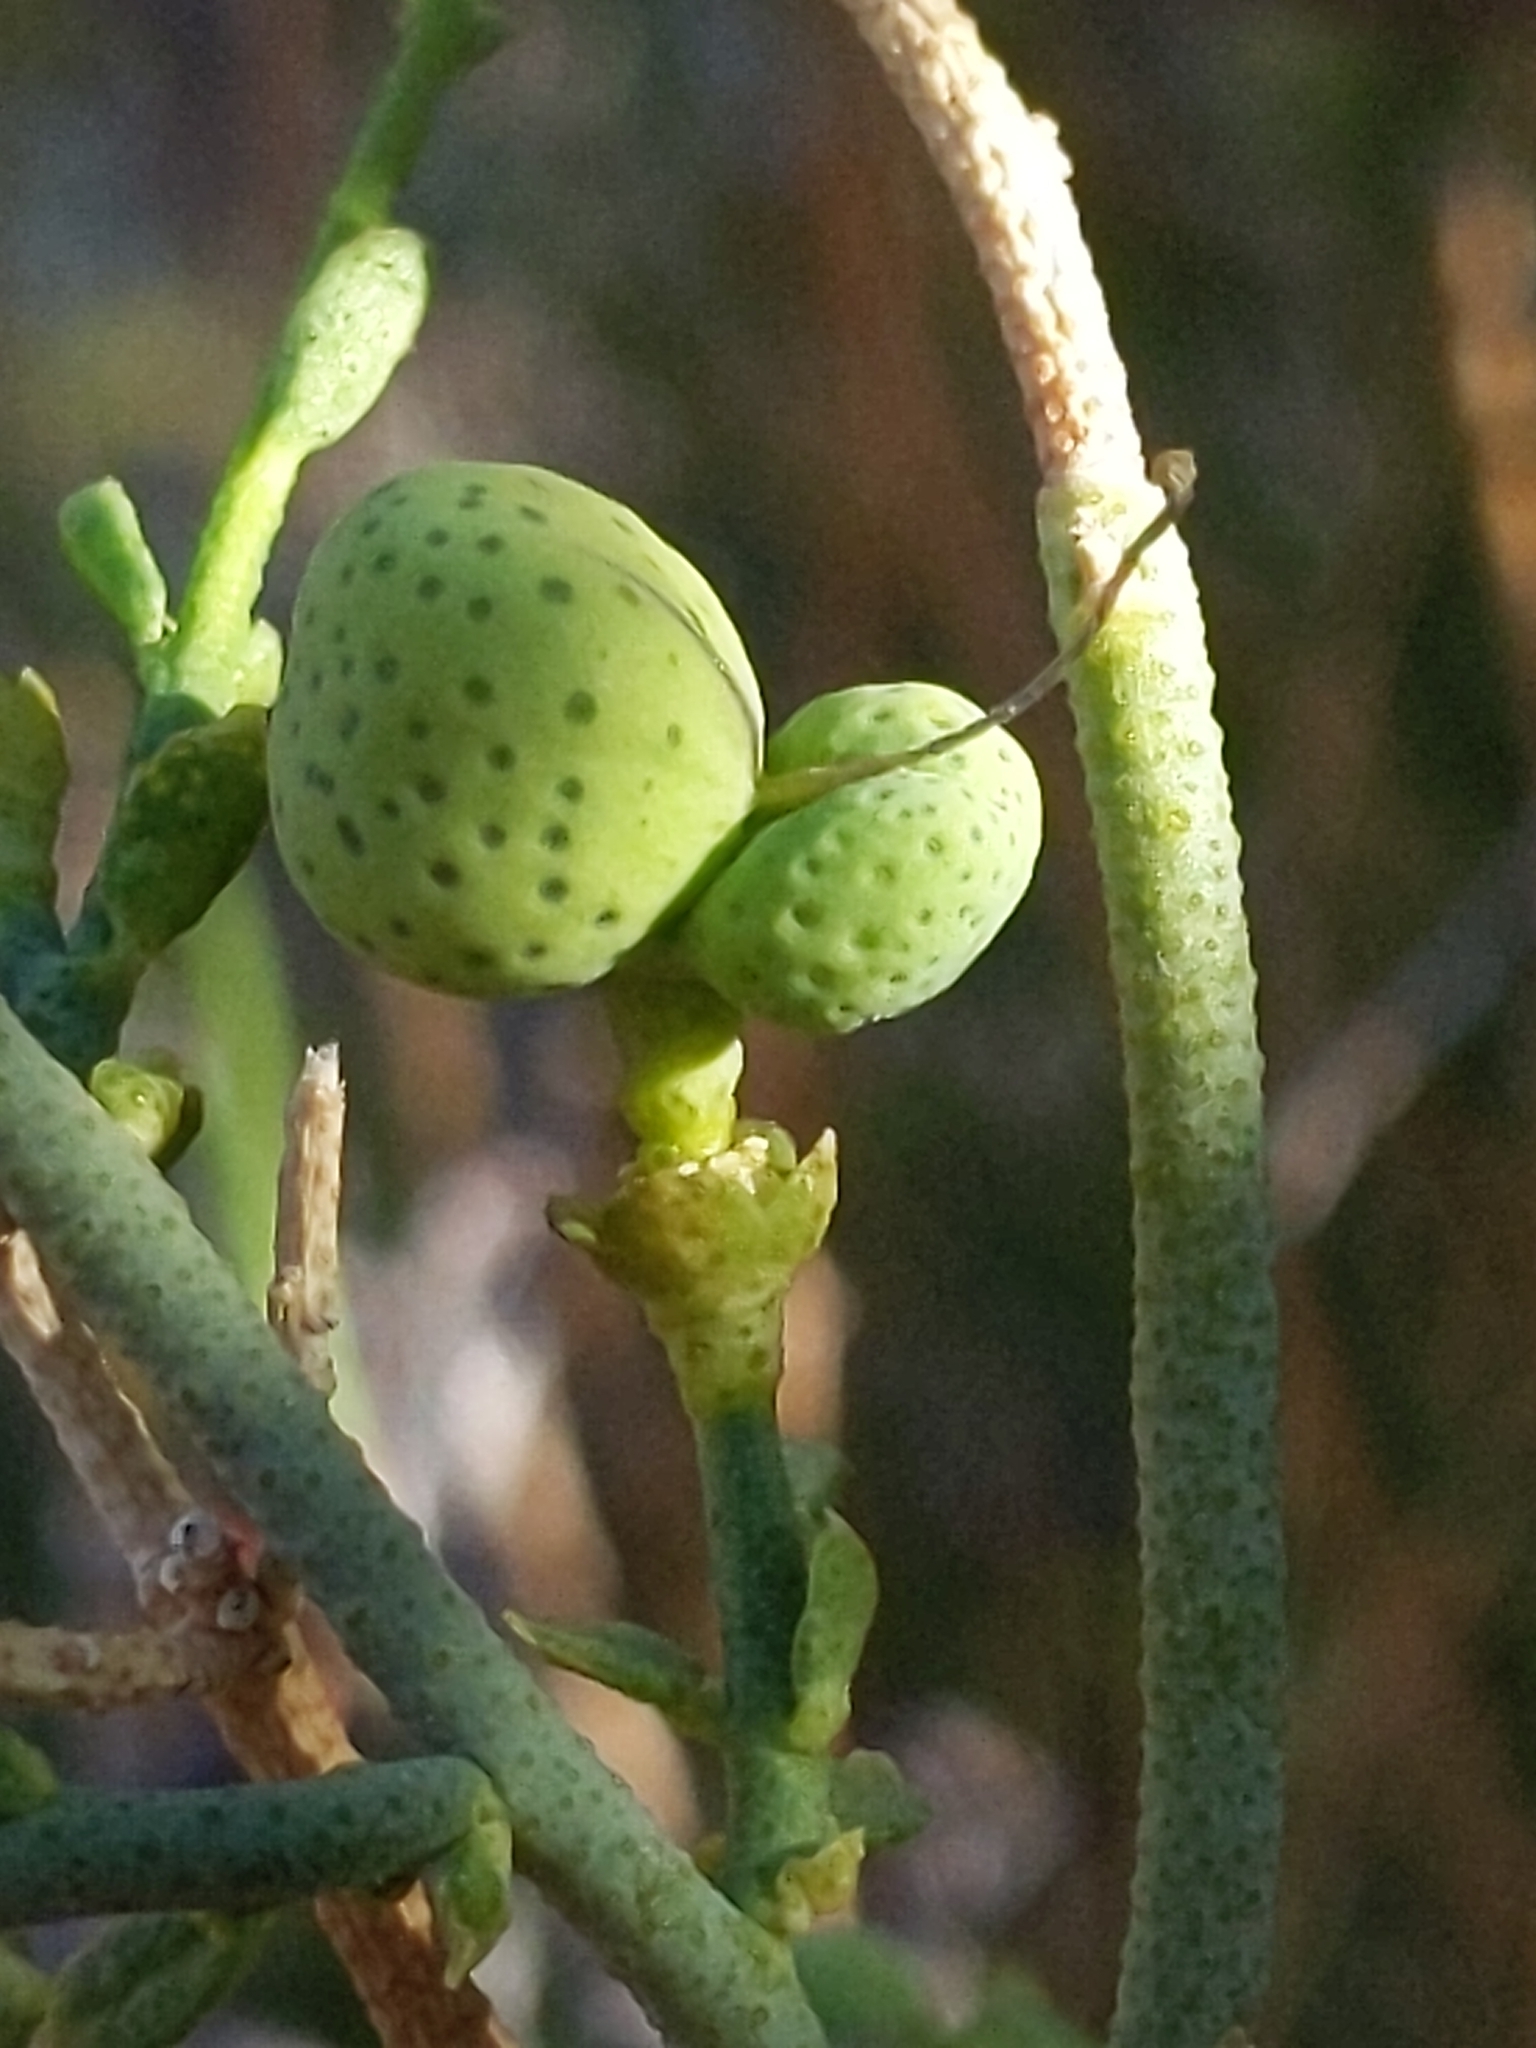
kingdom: Plantae
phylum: Tracheophyta
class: Magnoliopsida
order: Sapindales
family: Rutaceae
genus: Thamnosma
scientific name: Thamnosma montana
